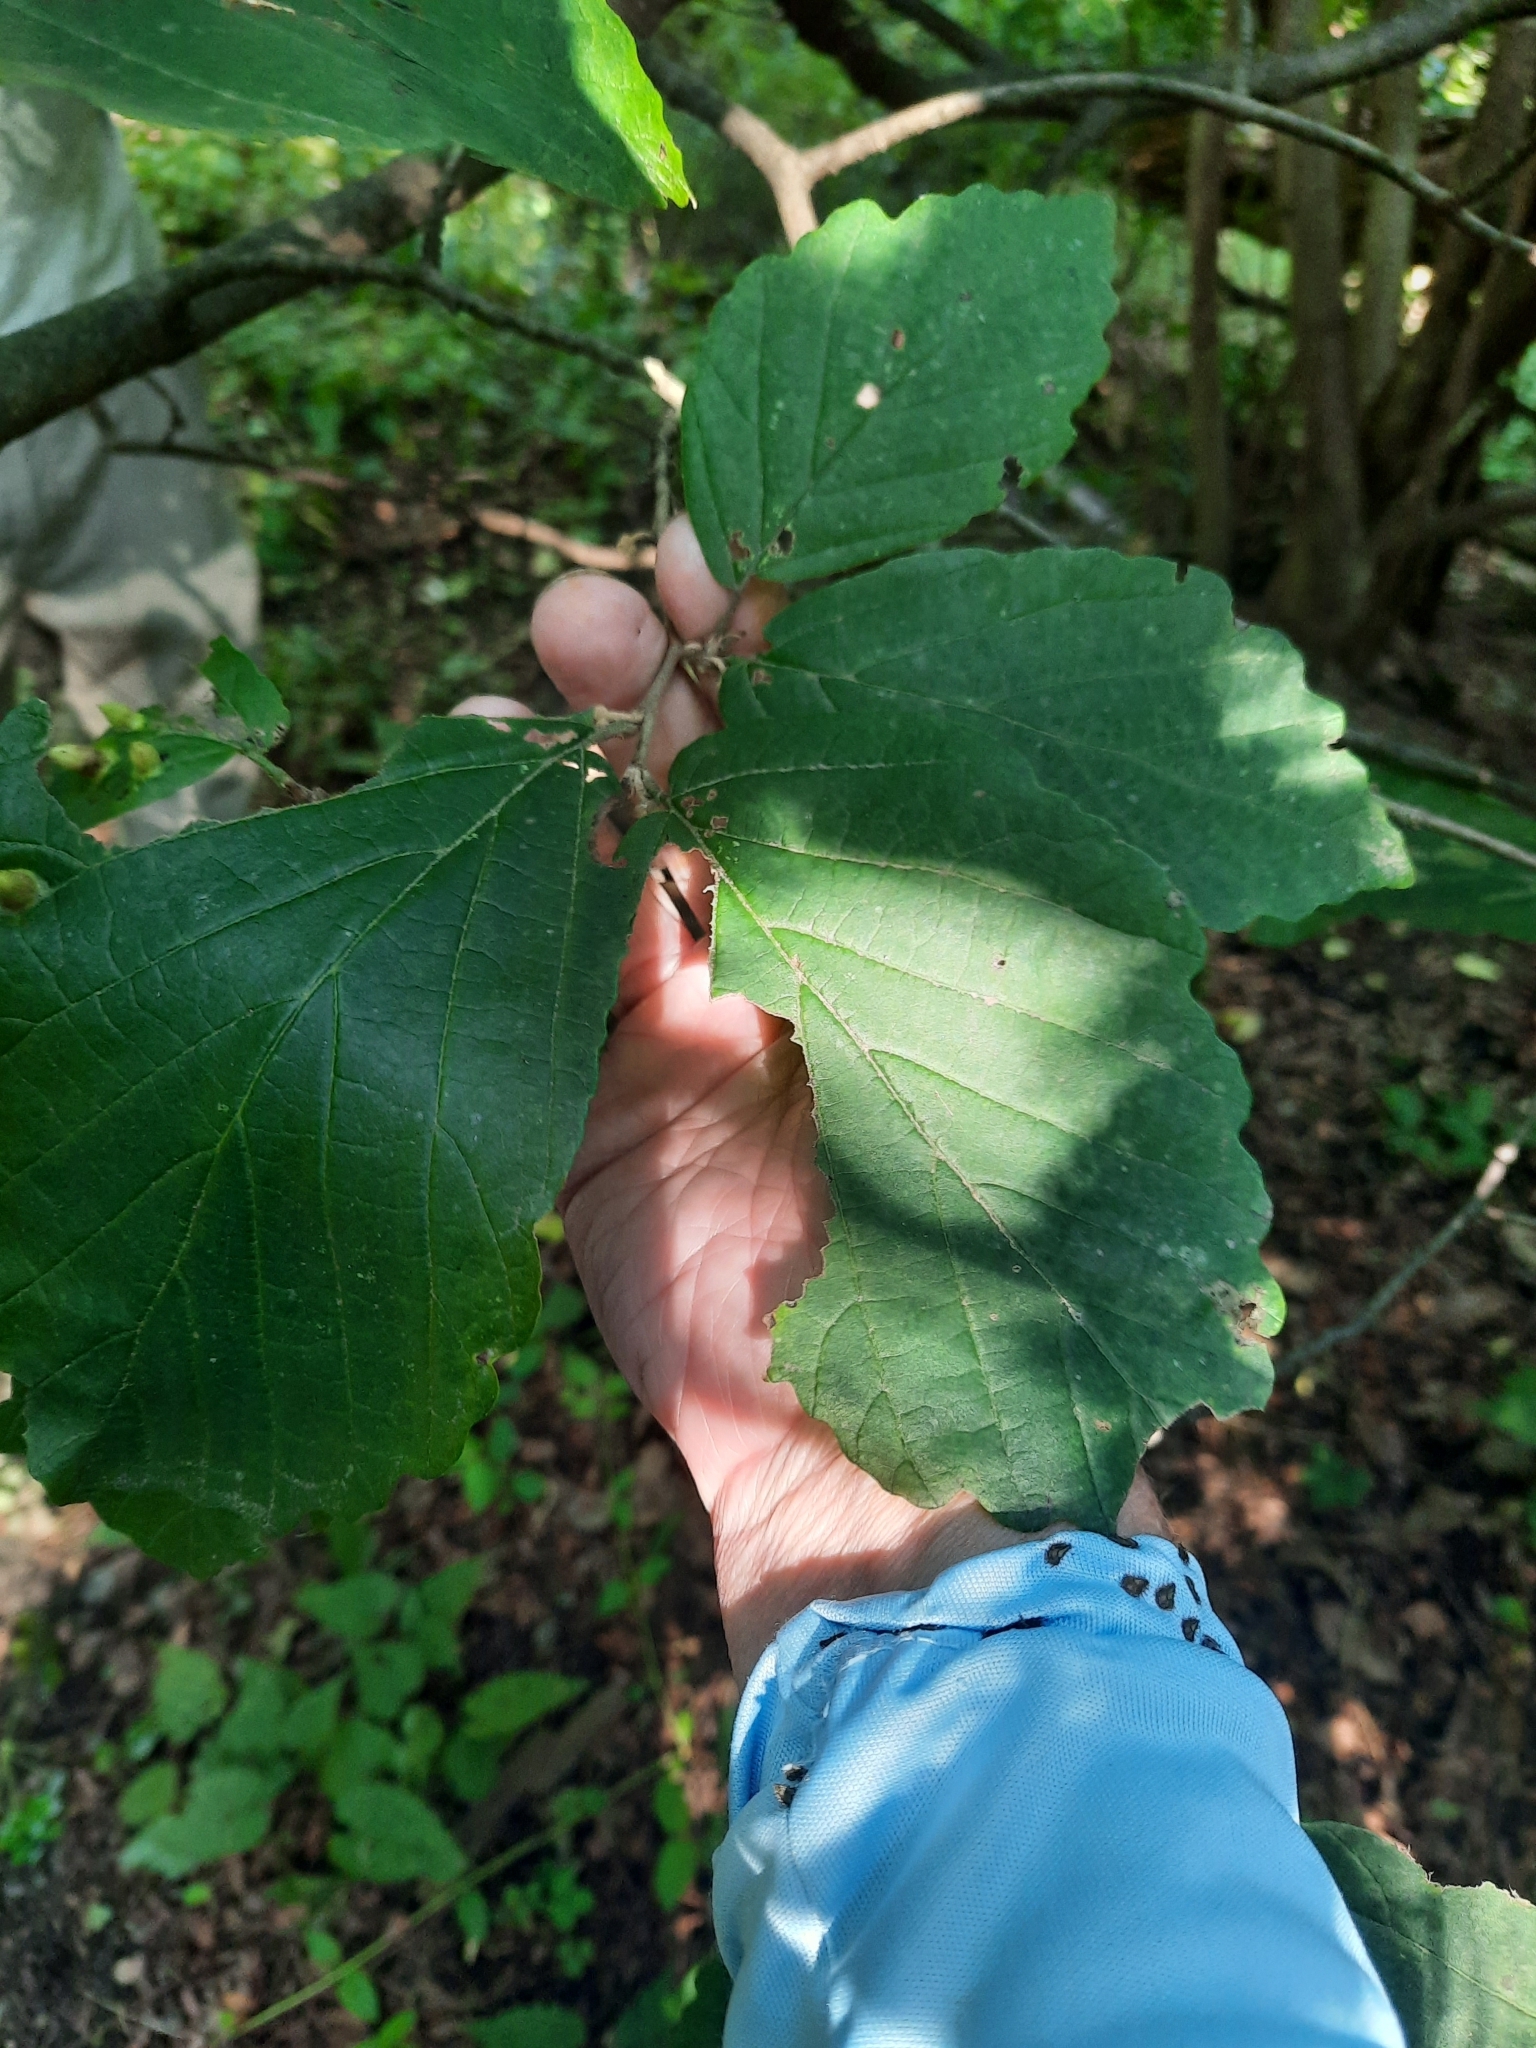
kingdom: Plantae
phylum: Tracheophyta
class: Magnoliopsida
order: Saxifragales
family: Hamamelidaceae
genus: Hamamelis
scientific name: Hamamelis virginiana
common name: Witch-hazel
